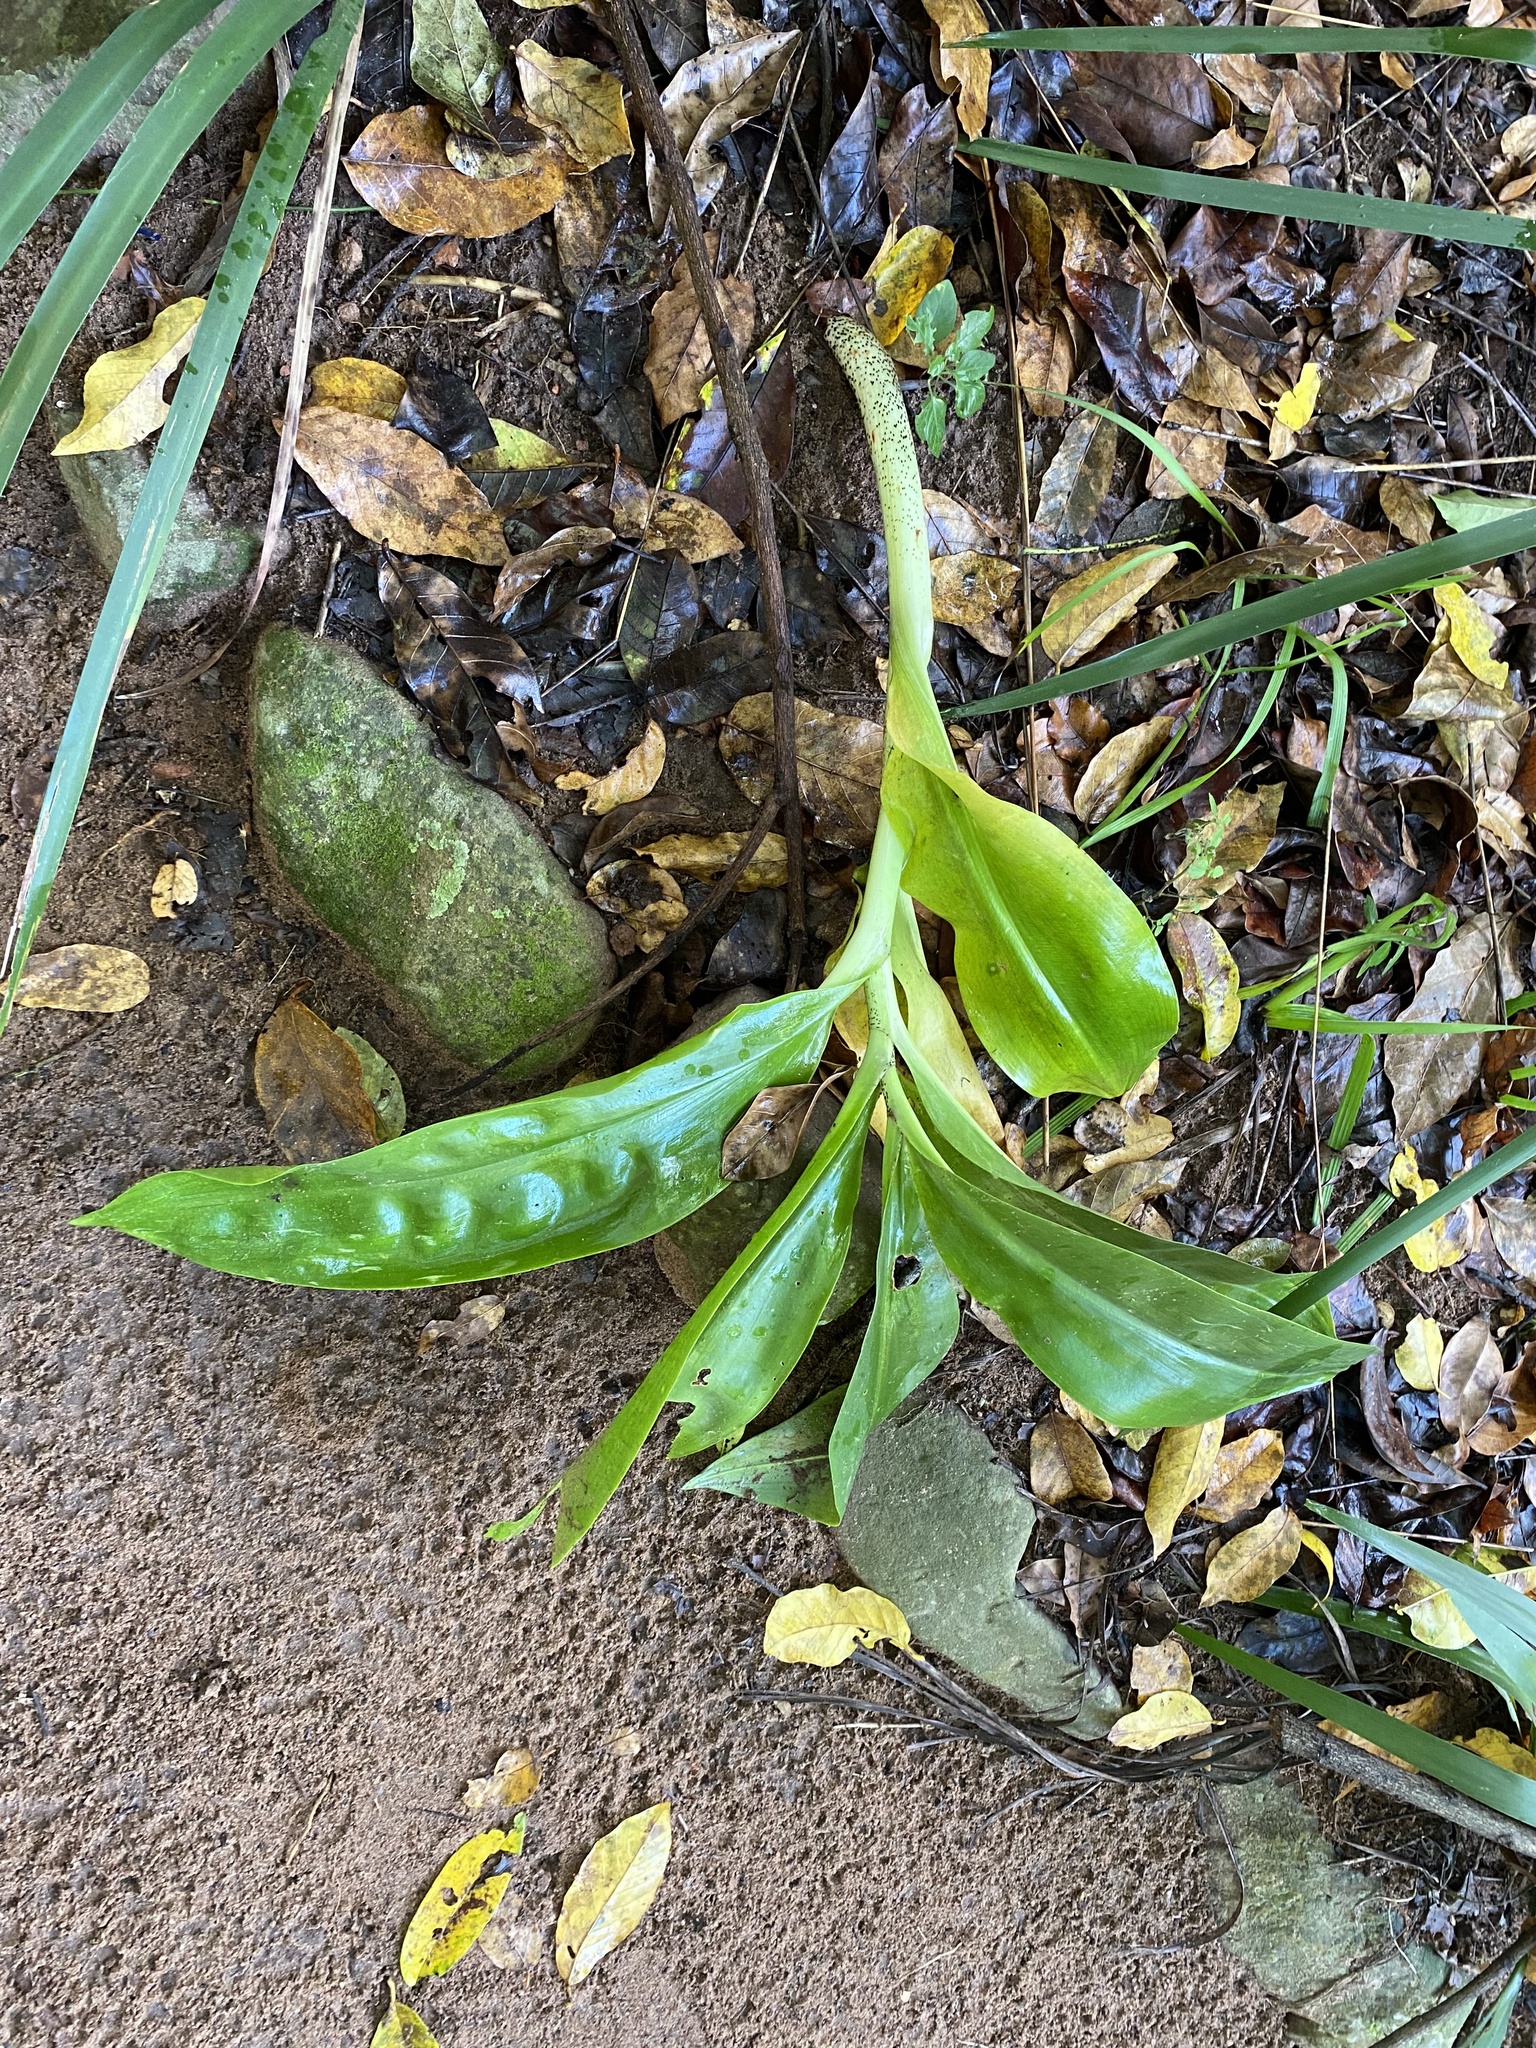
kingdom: Plantae
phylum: Tracheophyta
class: Liliopsida
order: Asparagales
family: Amaryllidaceae
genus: Scadoxus
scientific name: Scadoxus puniceus
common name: Royal-paintbrush
